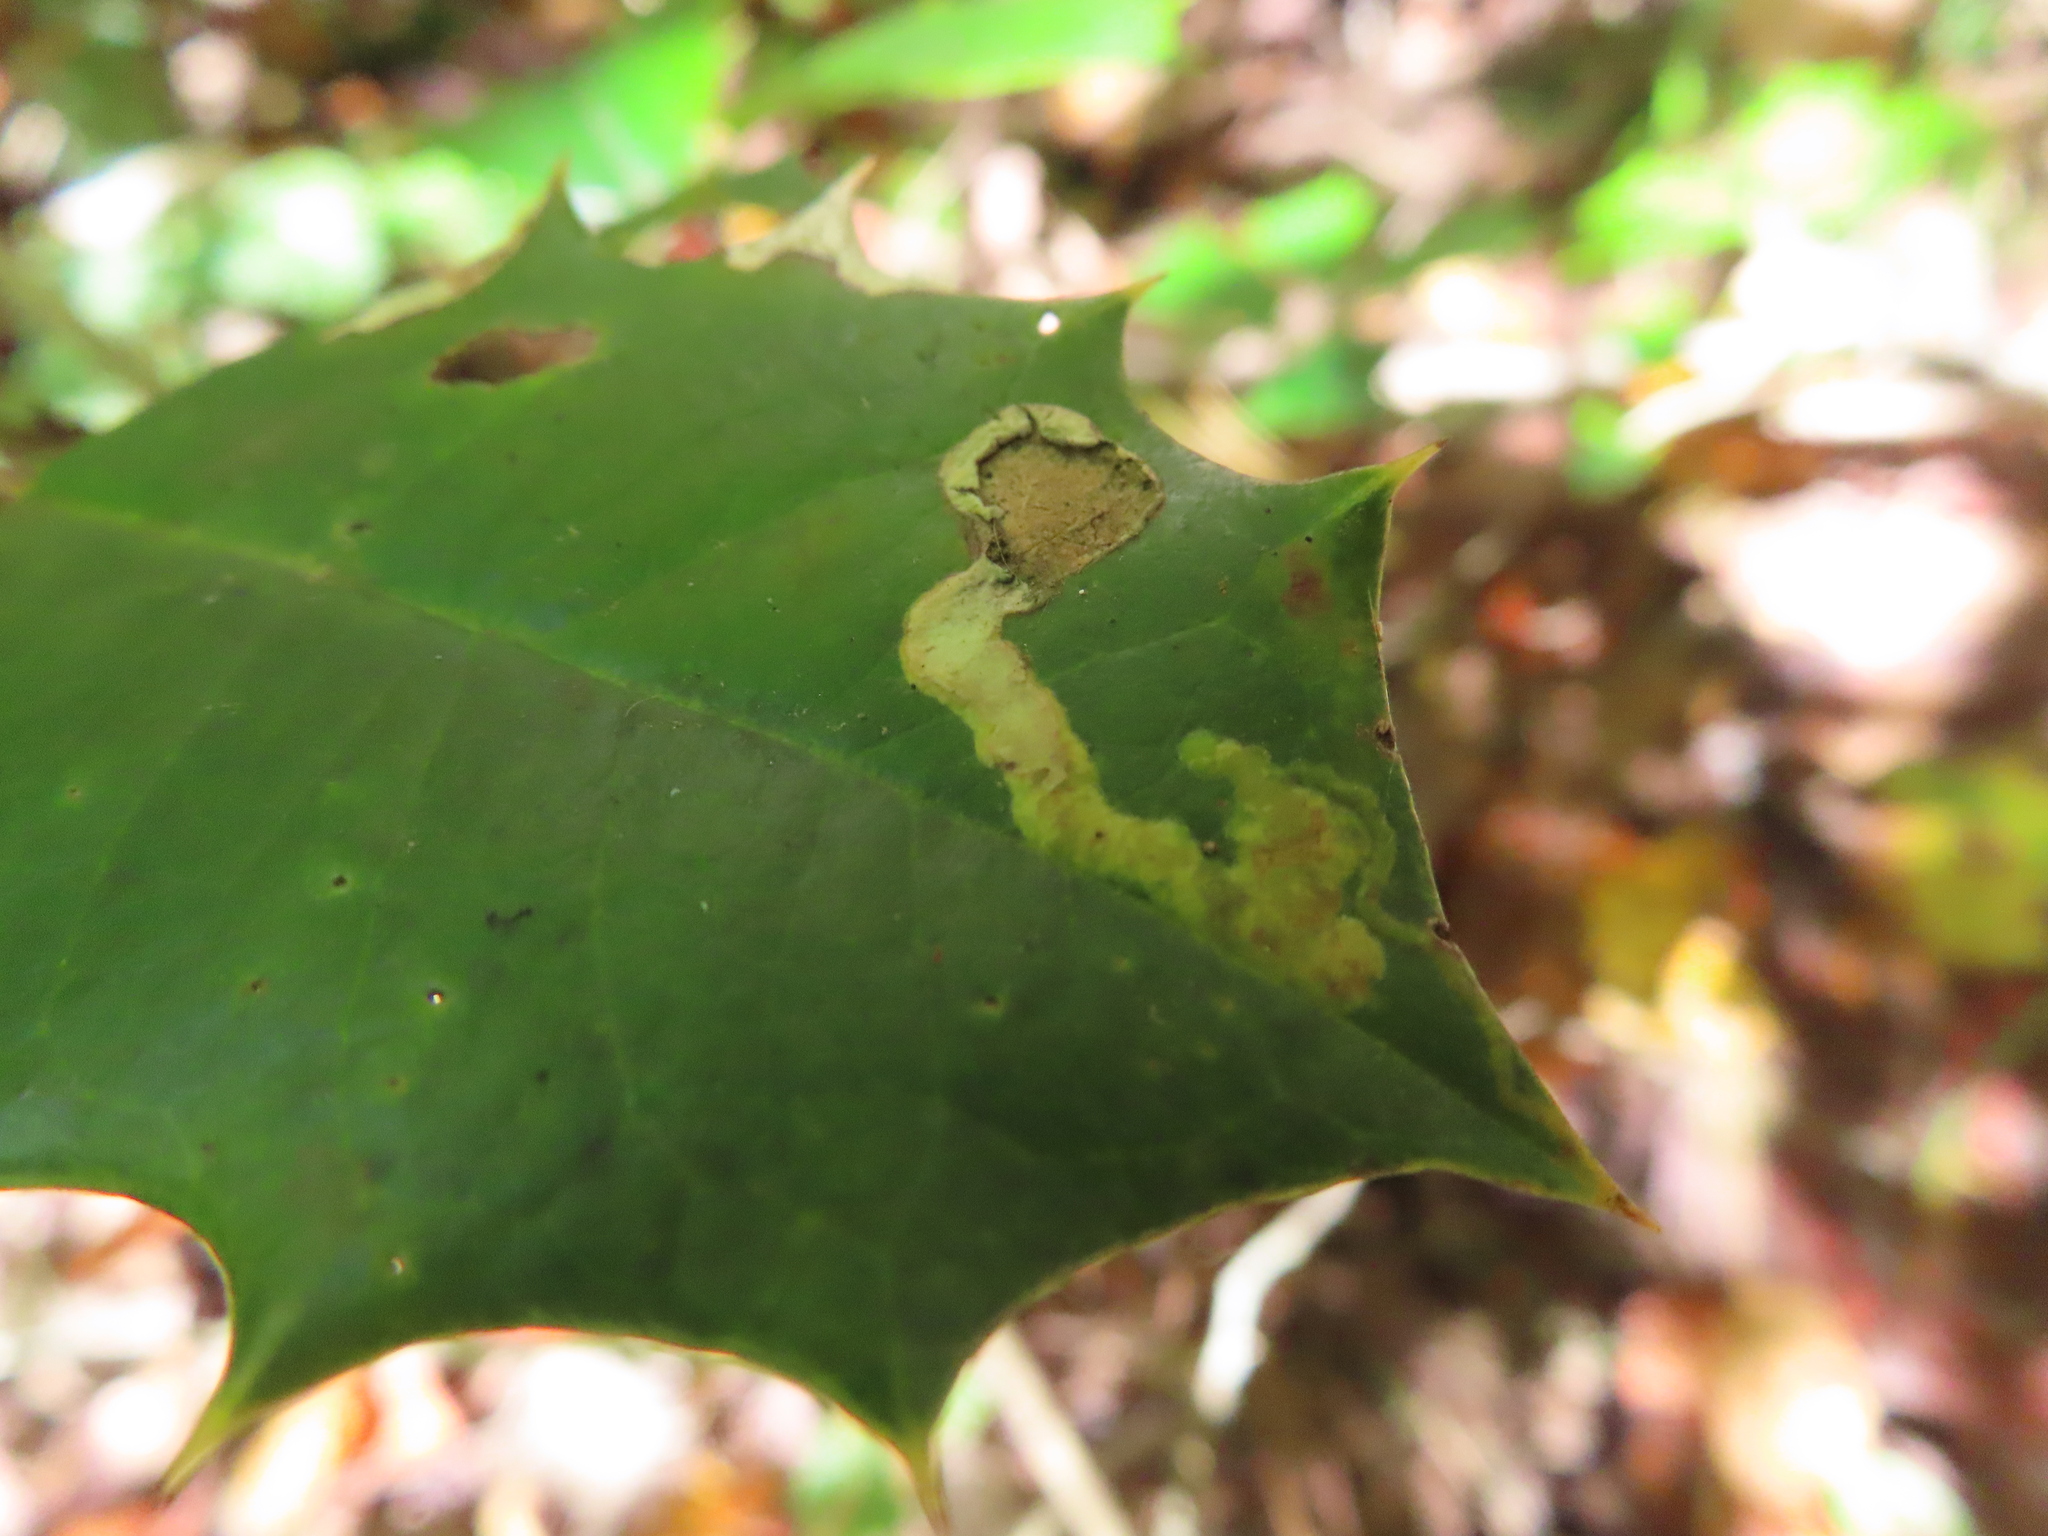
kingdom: Animalia
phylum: Arthropoda
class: Insecta
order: Diptera
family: Agromyzidae
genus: Phytomyza
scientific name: Phytomyza ilicicola
